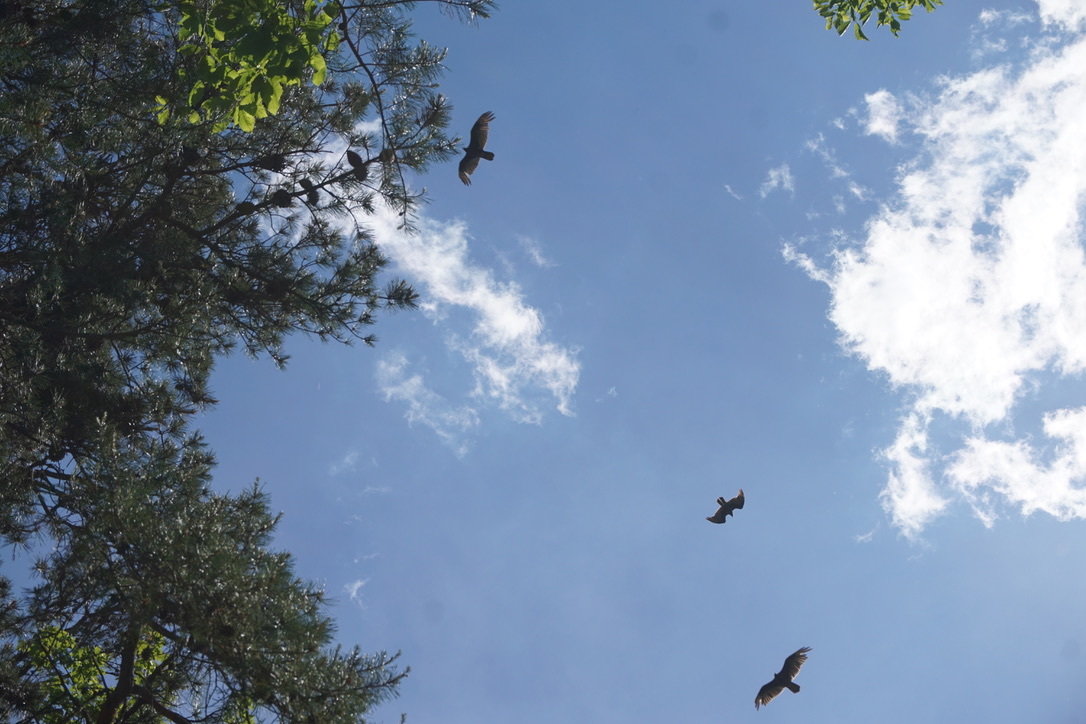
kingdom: Animalia
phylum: Chordata
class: Aves
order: Accipitriformes
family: Cathartidae
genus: Cathartes
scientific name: Cathartes aura
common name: Turkey vulture
